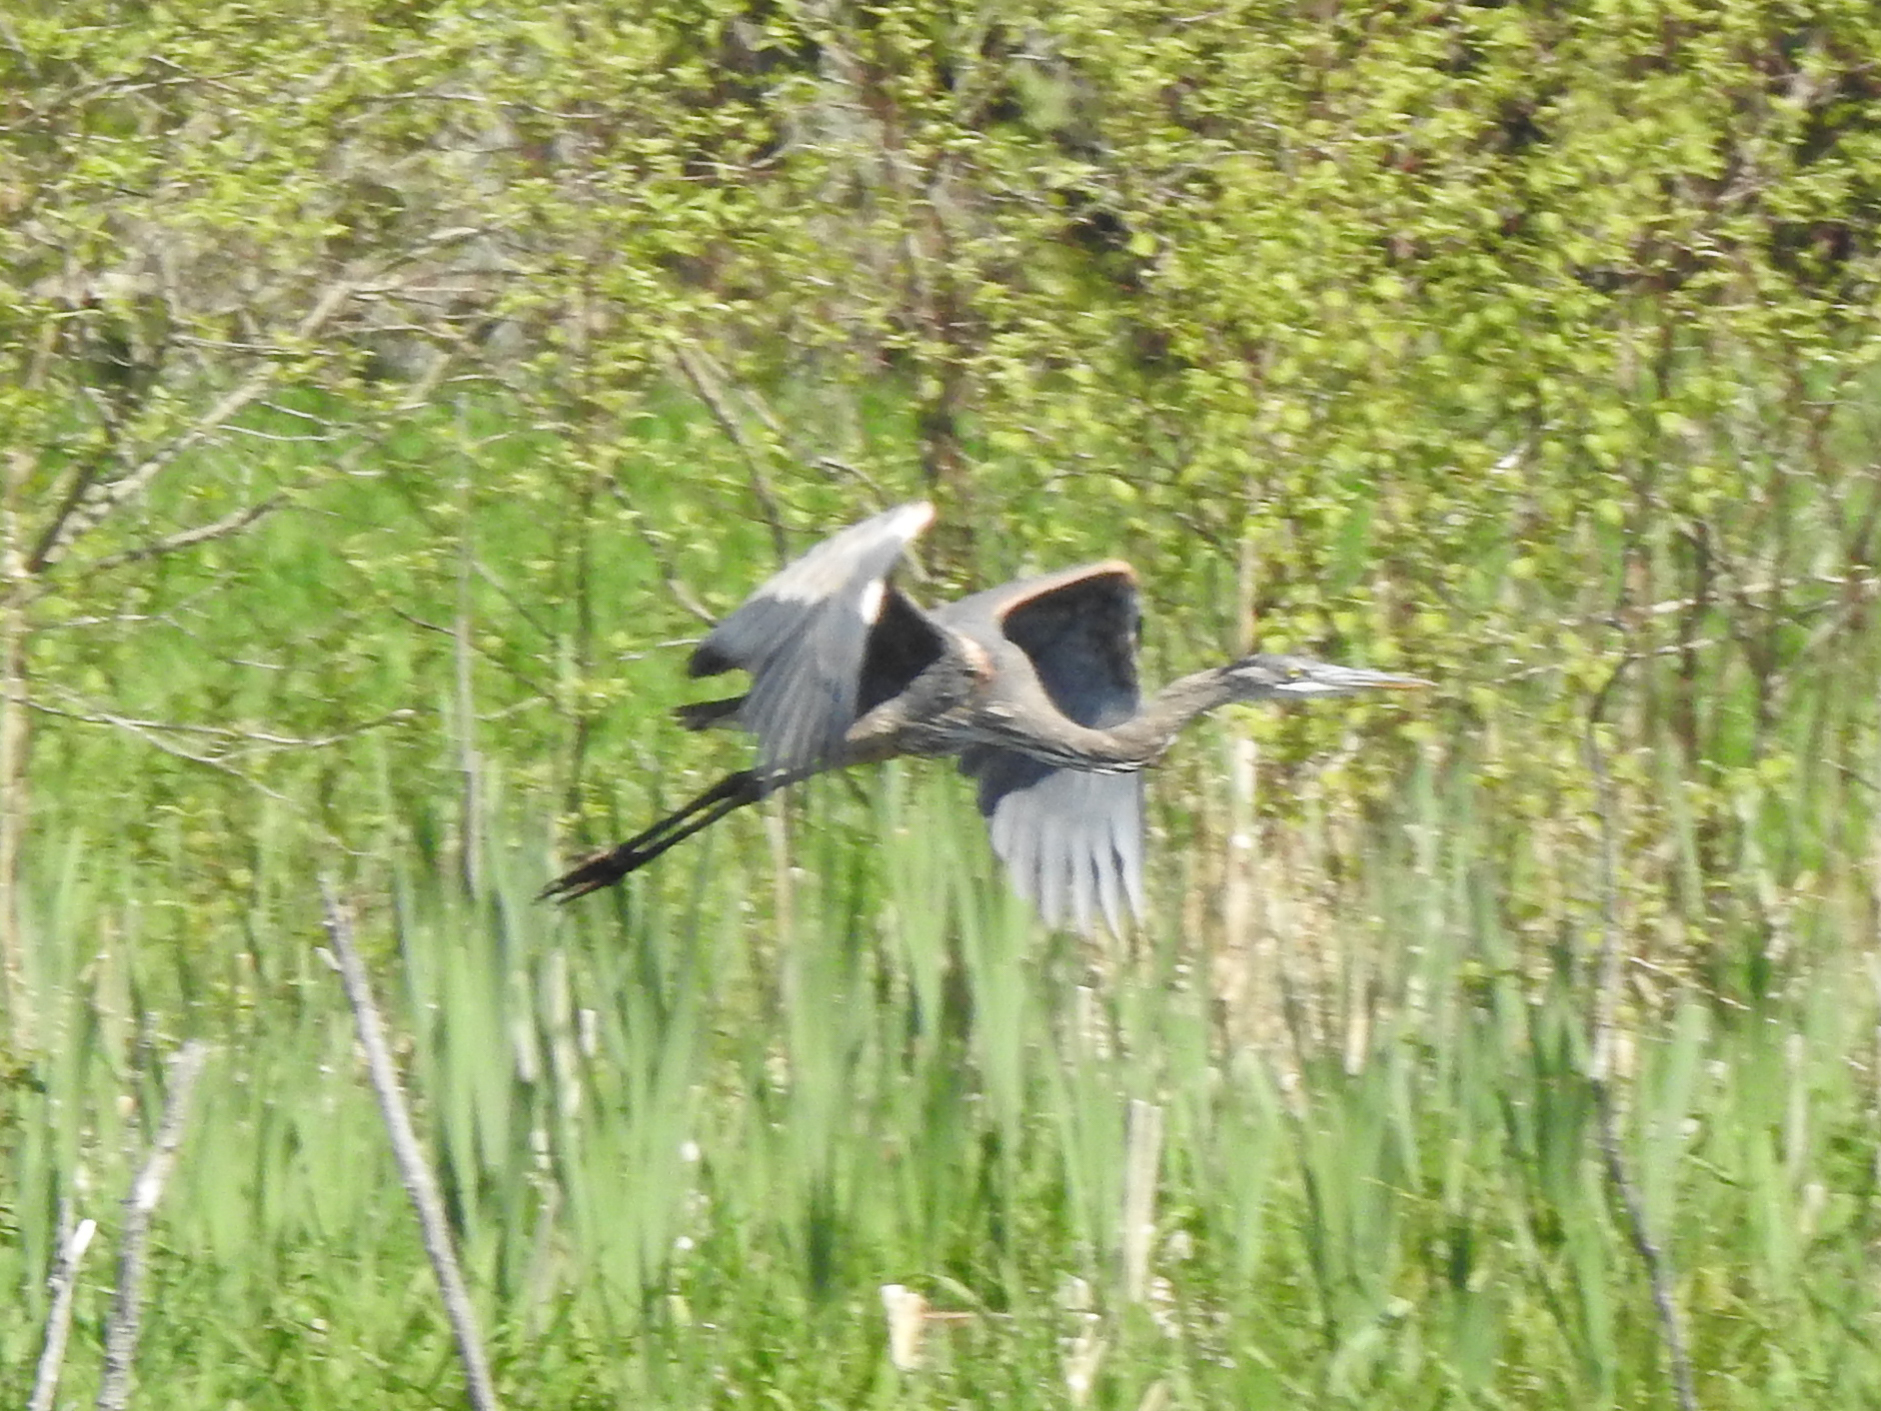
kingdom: Animalia
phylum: Chordata
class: Aves
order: Pelecaniformes
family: Ardeidae
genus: Ardea
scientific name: Ardea herodias
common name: Great blue heron
